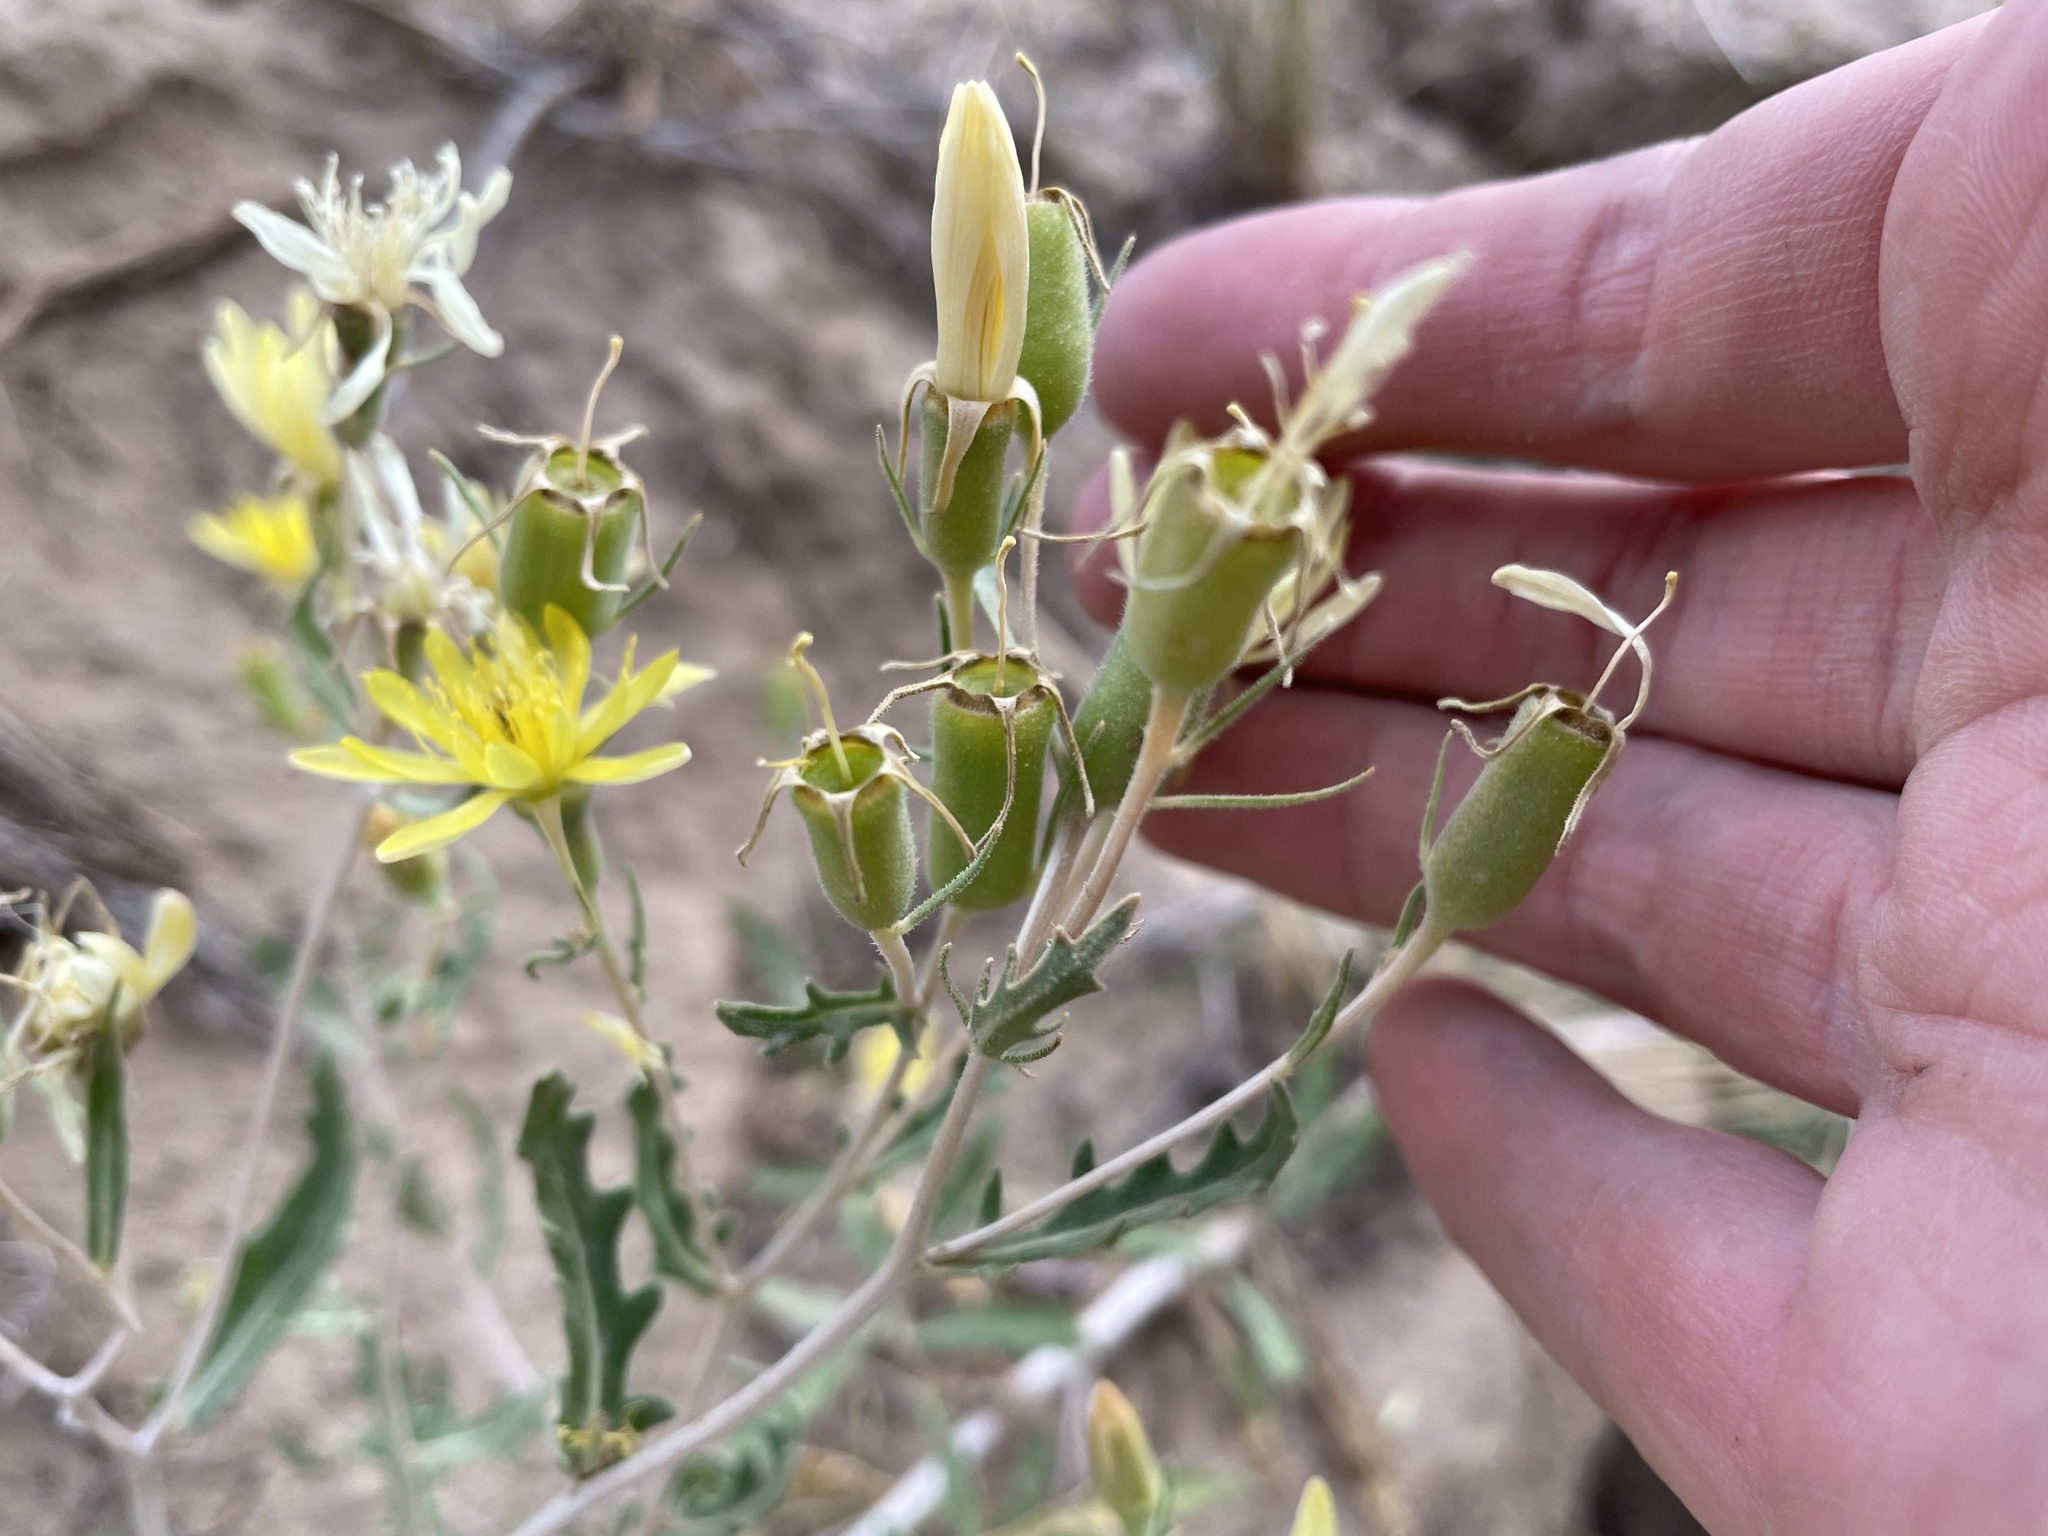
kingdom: Plantae
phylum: Tracheophyta
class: Magnoliopsida
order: Cornales
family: Loasaceae
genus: Mentzelia
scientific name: Mentzelia multiflora
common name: Adonis blazingstar
